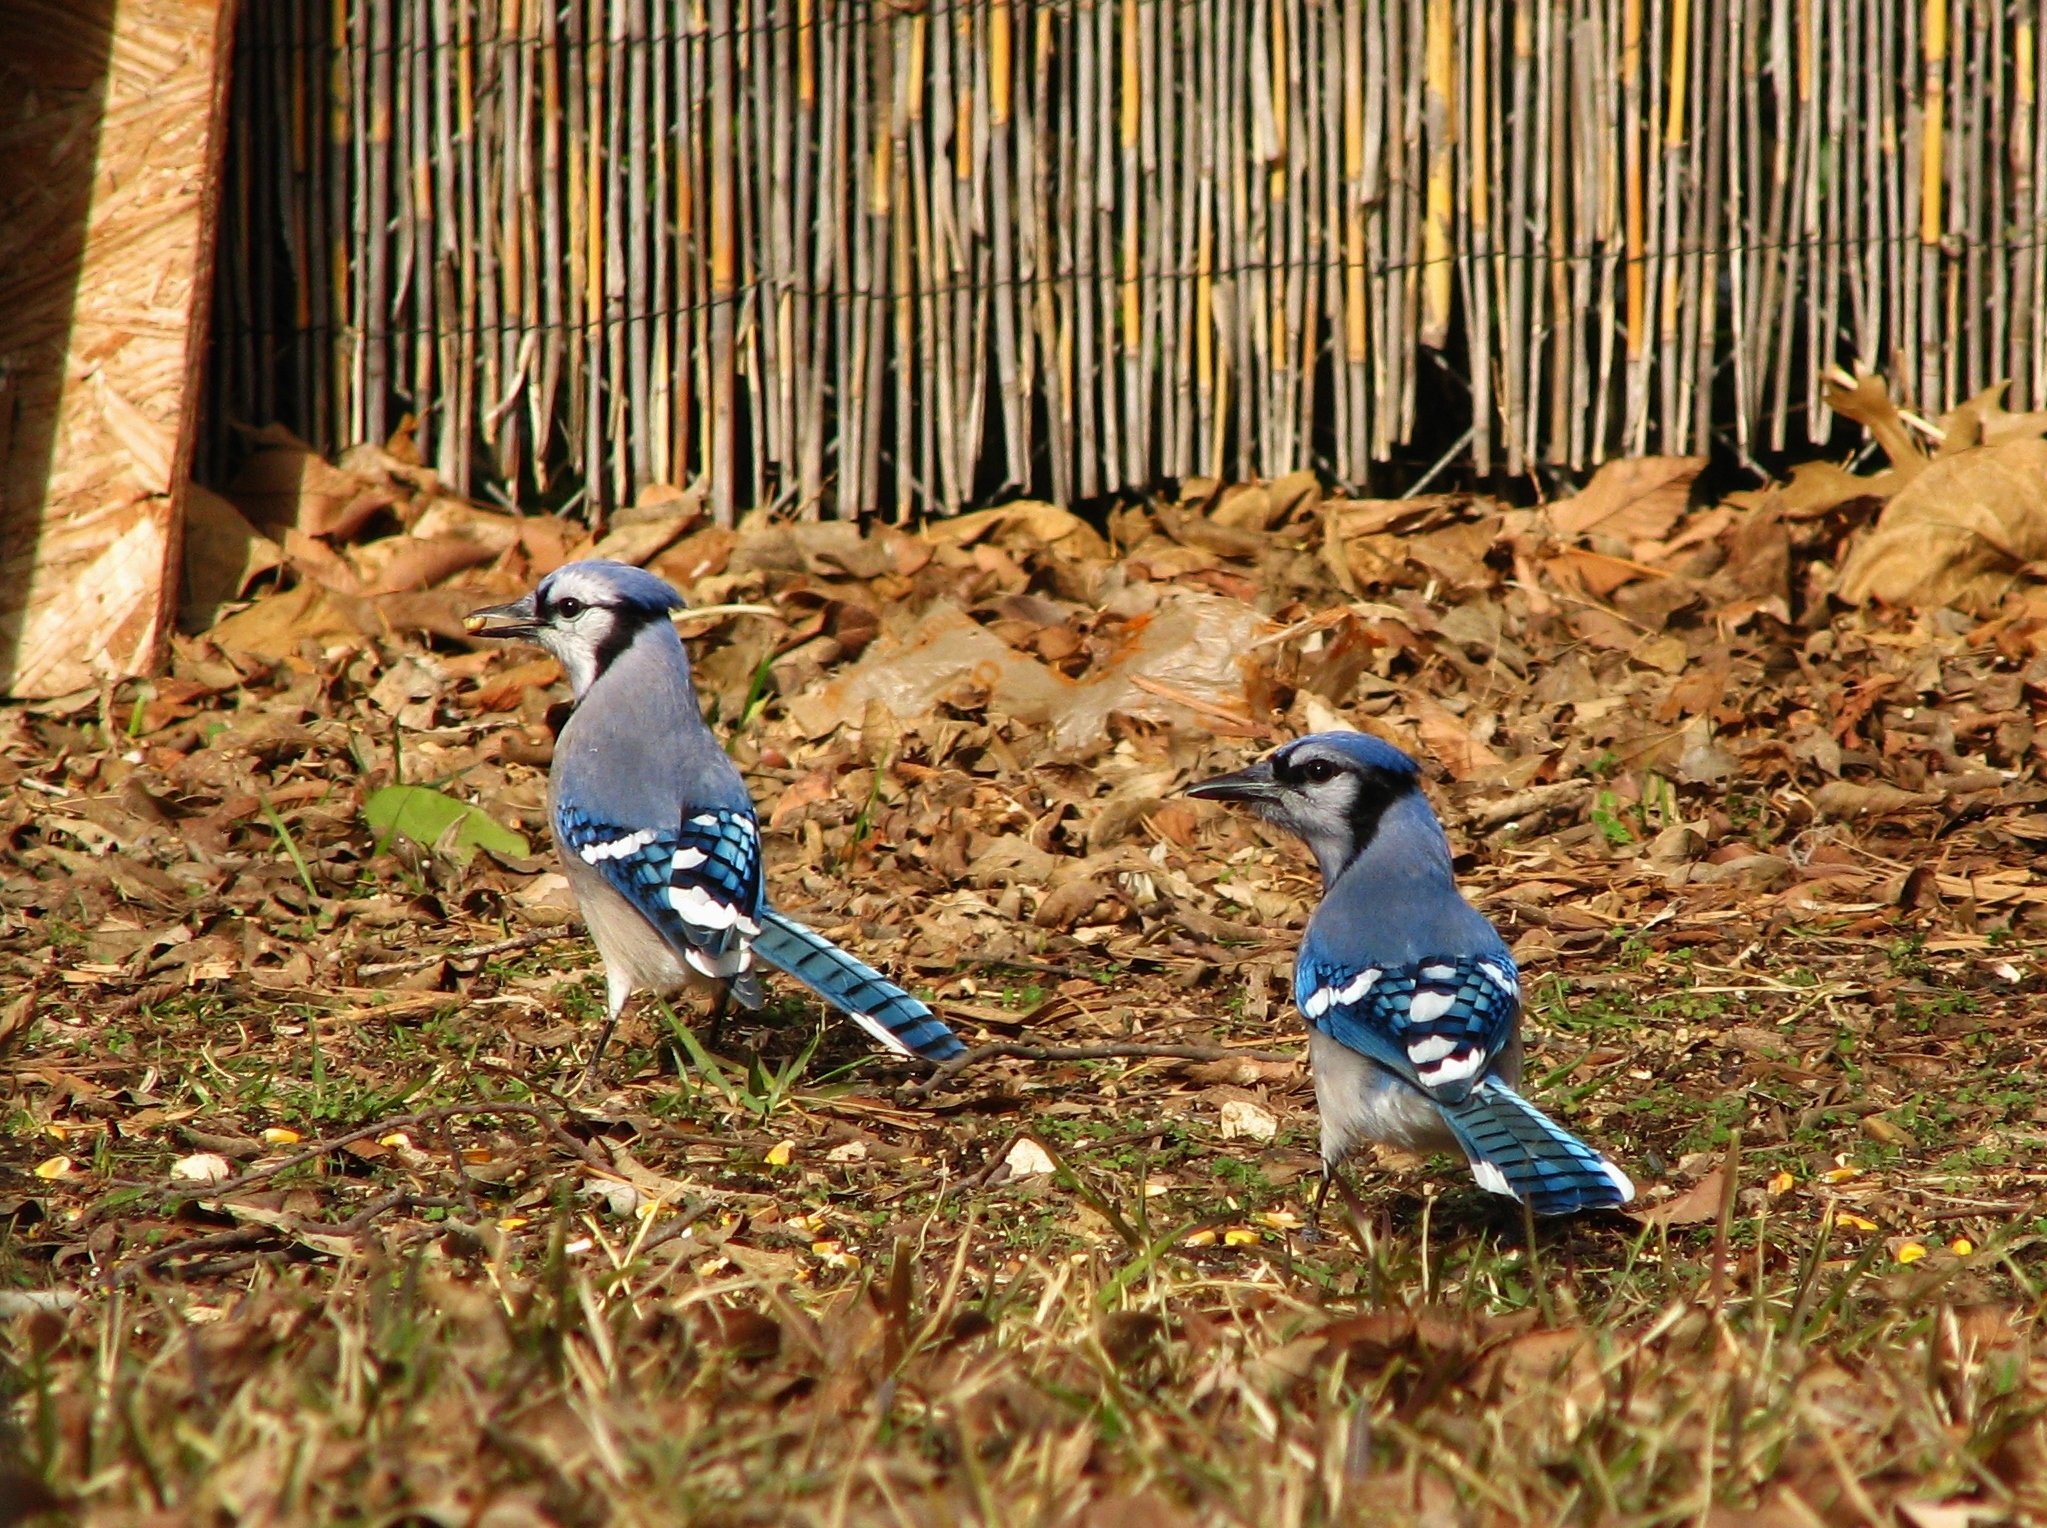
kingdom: Animalia
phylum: Chordata
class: Aves
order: Passeriformes
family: Corvidae
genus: Cyanocitta
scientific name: Cyanocitta cristata
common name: Blue jay
